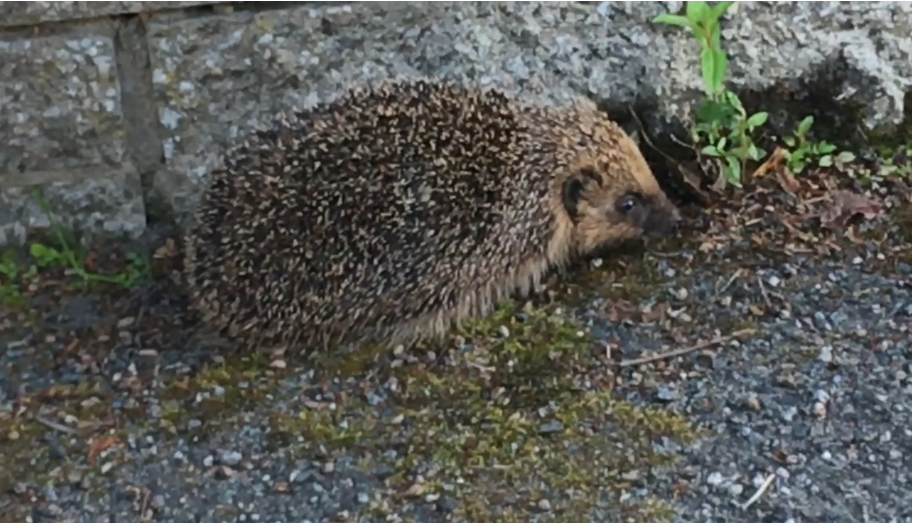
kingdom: Animalia
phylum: Chordata
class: Mammalia
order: Erinaceomorpha
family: Erinaceidae
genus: Erinaceus
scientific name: Erinaceus europaeus
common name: West european hedgehog
